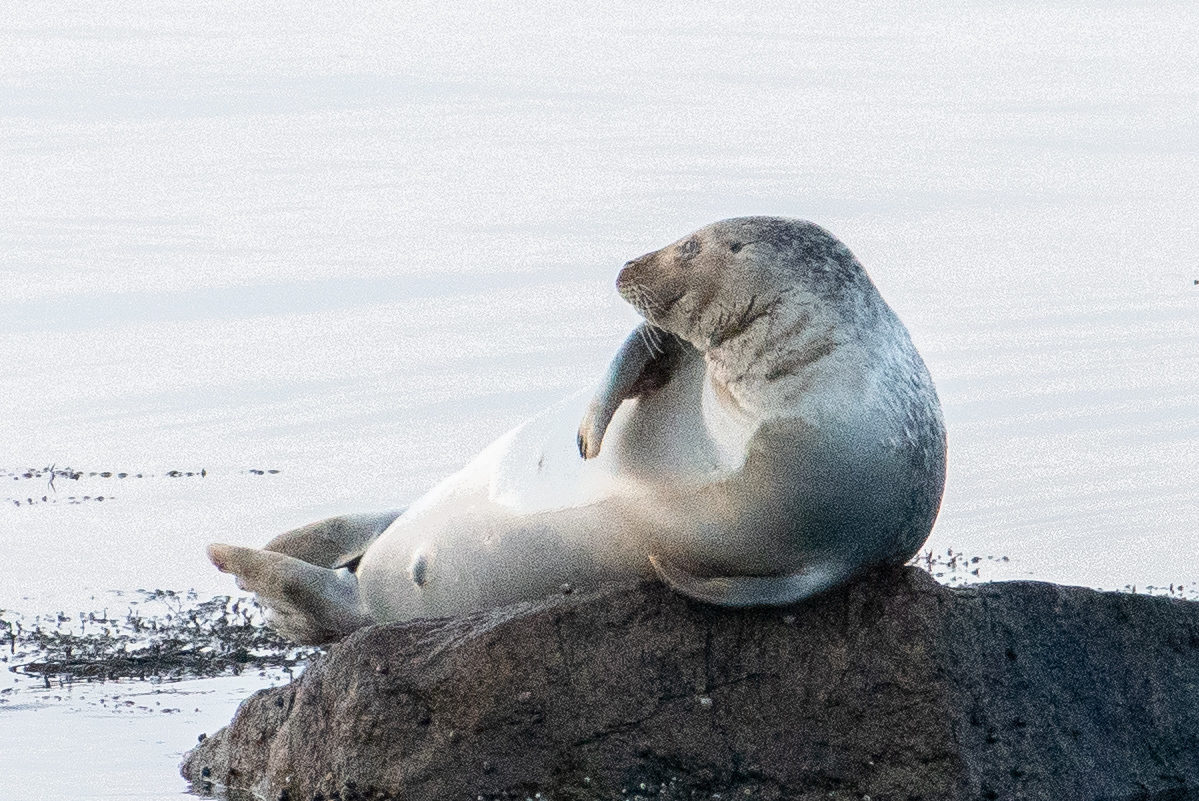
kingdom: Animalia
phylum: Chordata
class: Mammalia
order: Carnivora
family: Phocidae
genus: Phoca
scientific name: Phoca vitulina
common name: Harbor seal
